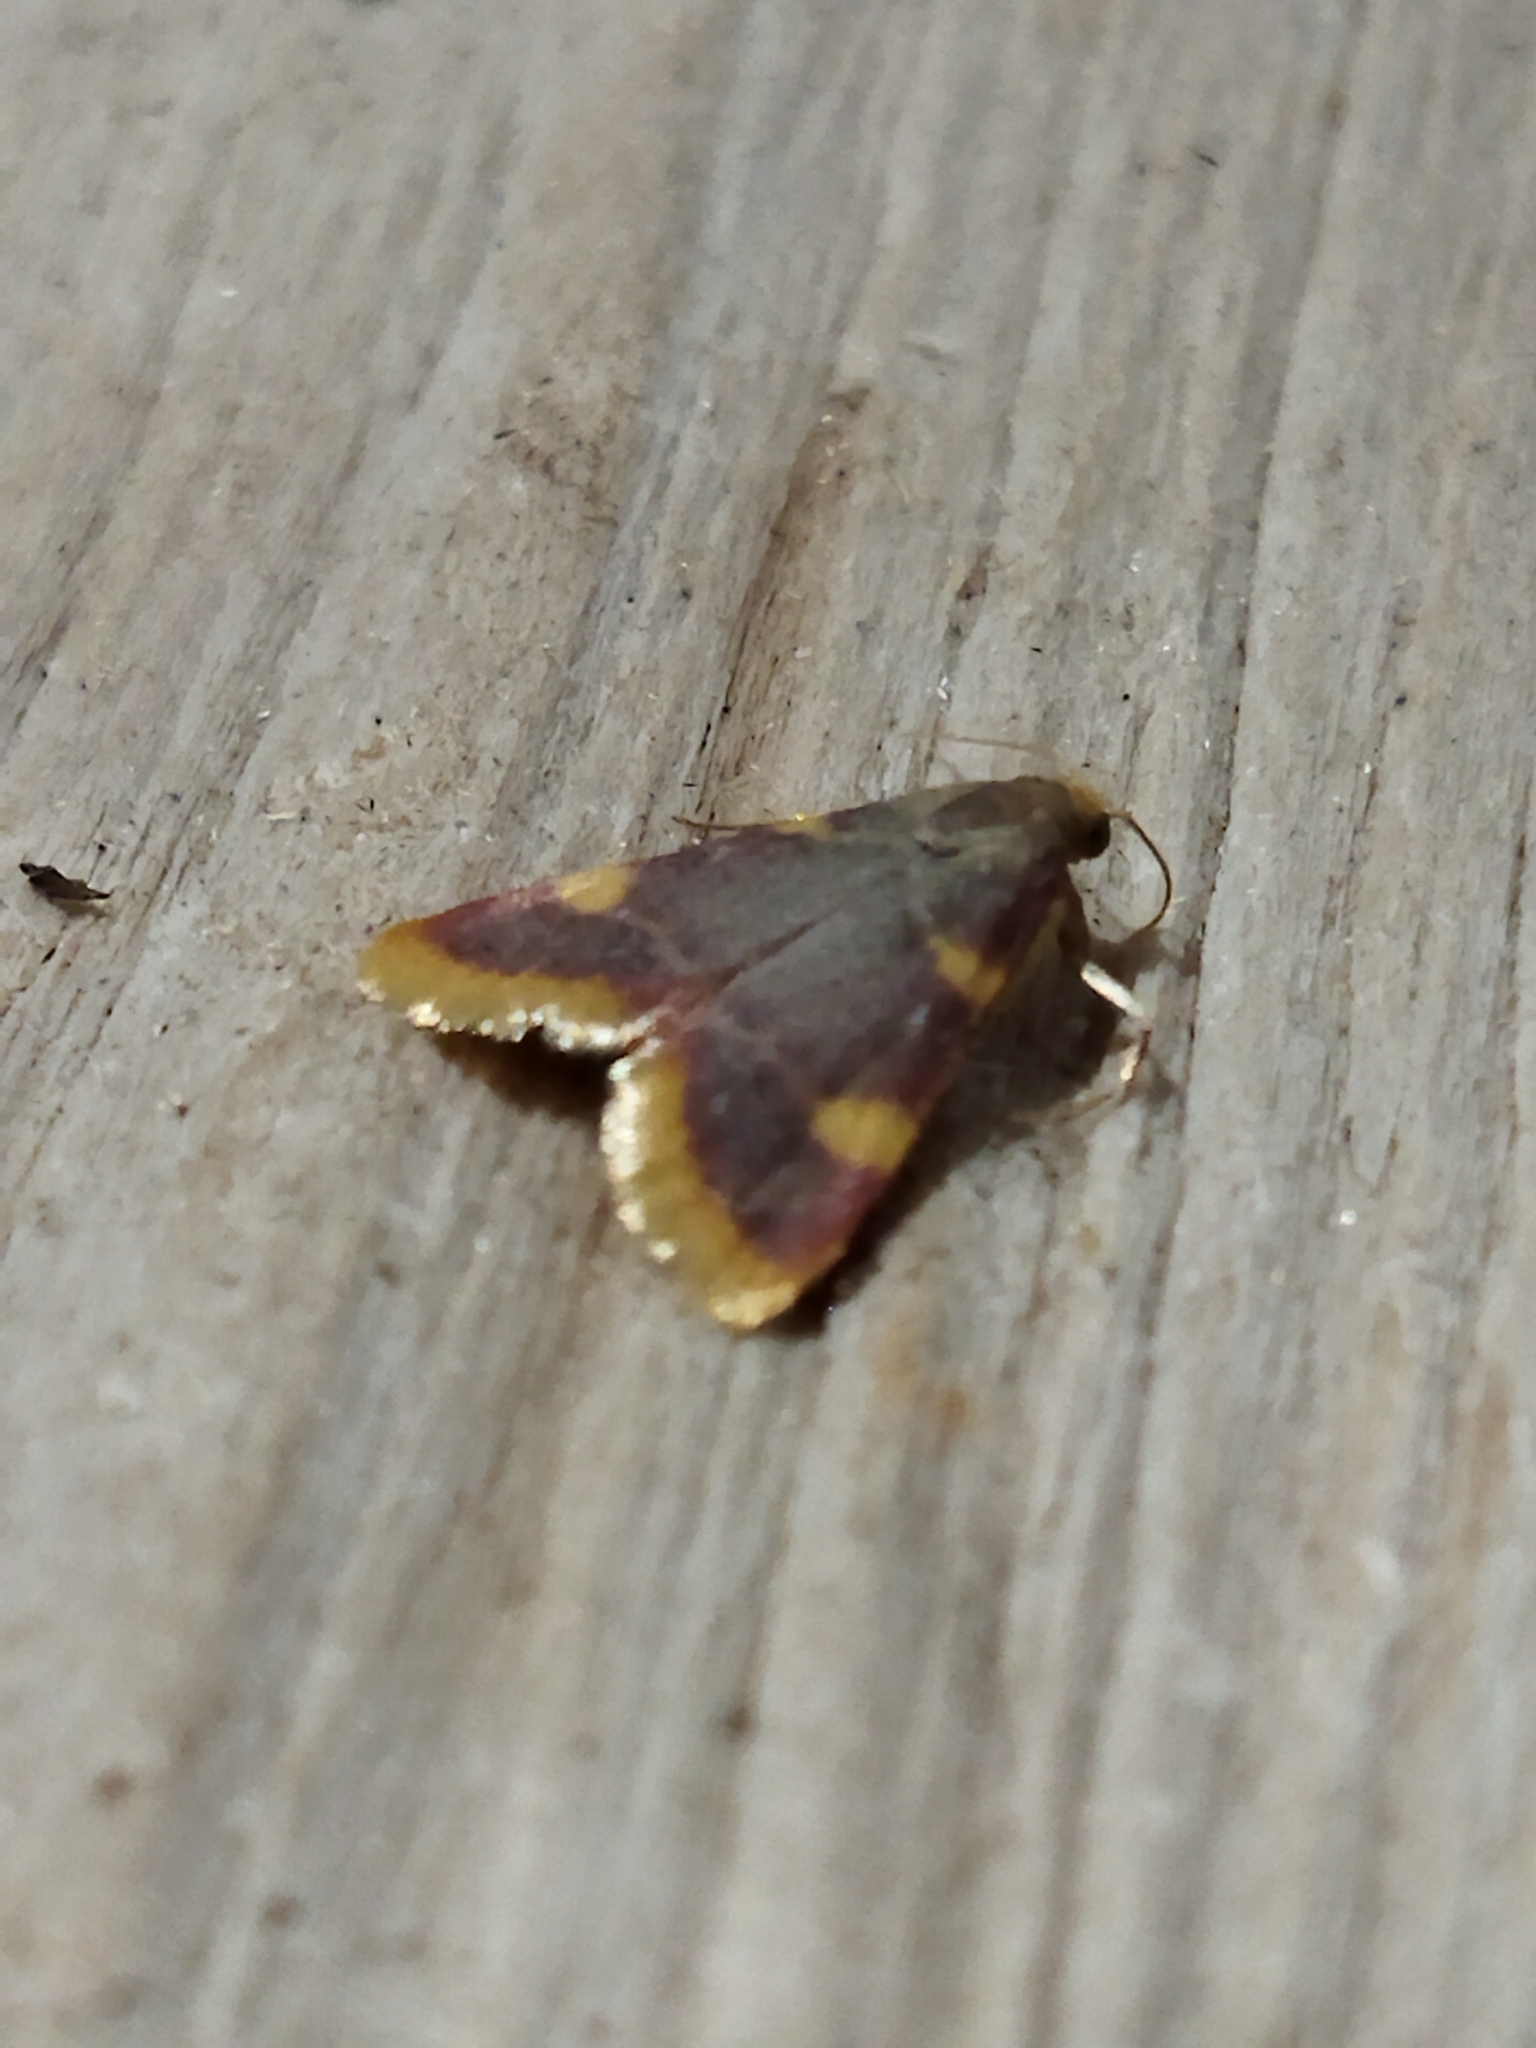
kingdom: Animalia
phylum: Arthropoda
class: Insecta
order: Lepidoptera
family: Pyralidae
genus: Hypsopygia
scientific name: Hypsopygia costalis
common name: Gold triangle
